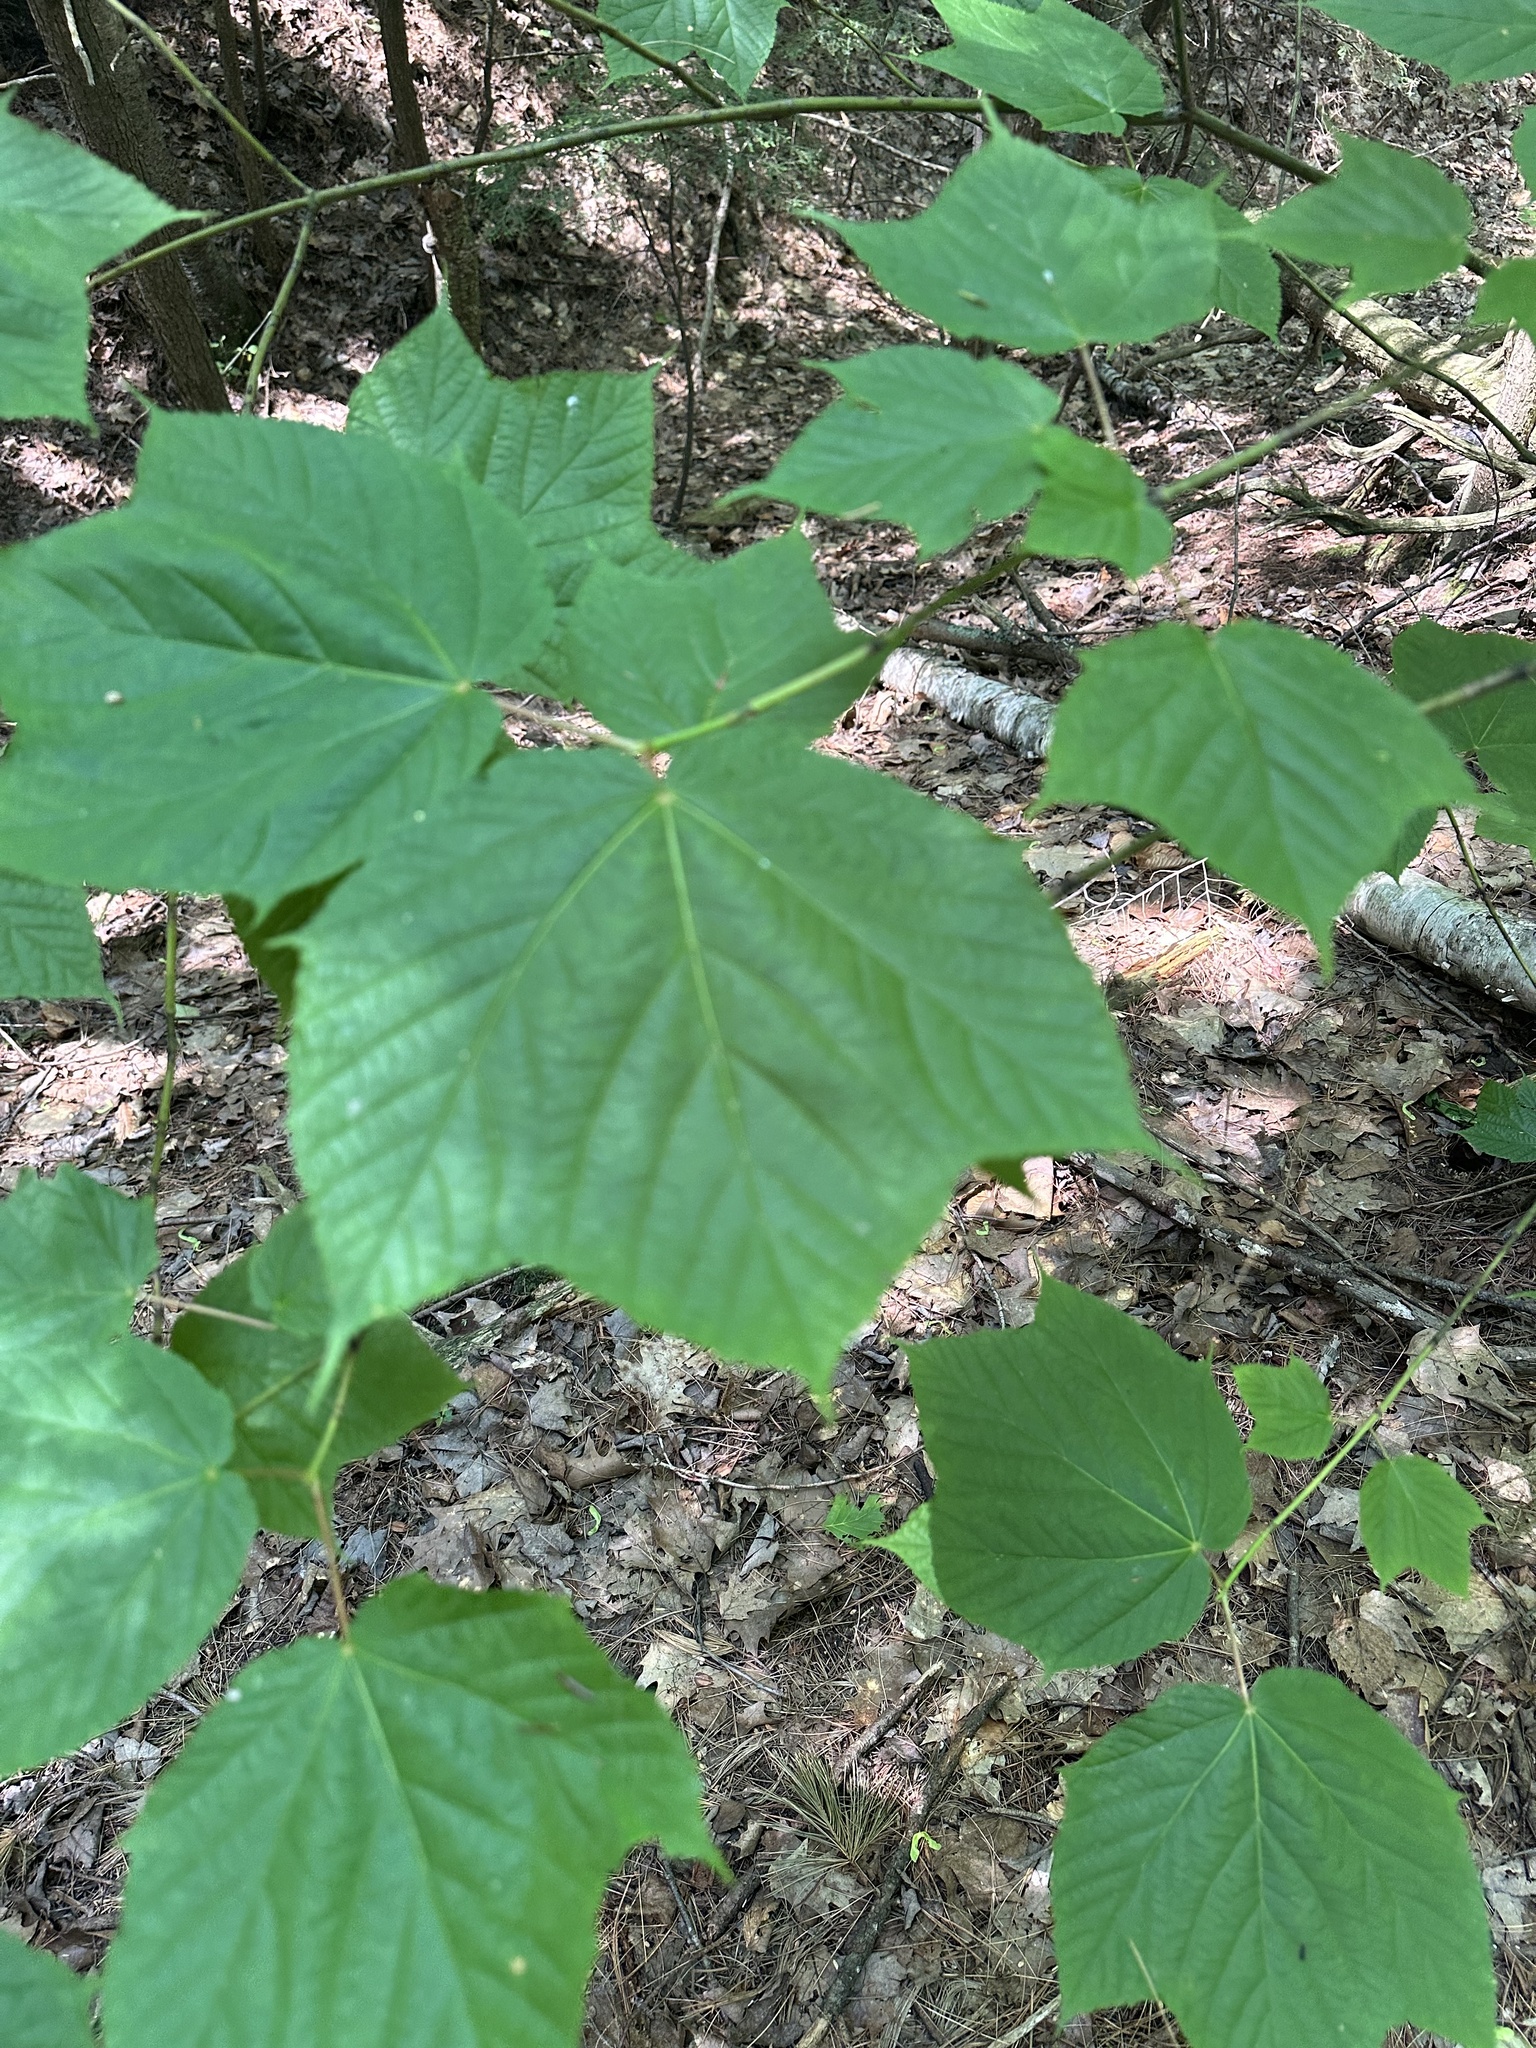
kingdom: Plantae
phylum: Tracheophyta
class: Magnoliopsida
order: Sapindales
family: Sapindaceae
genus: Acer
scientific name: Acer pensylvanicum
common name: Moosewood
